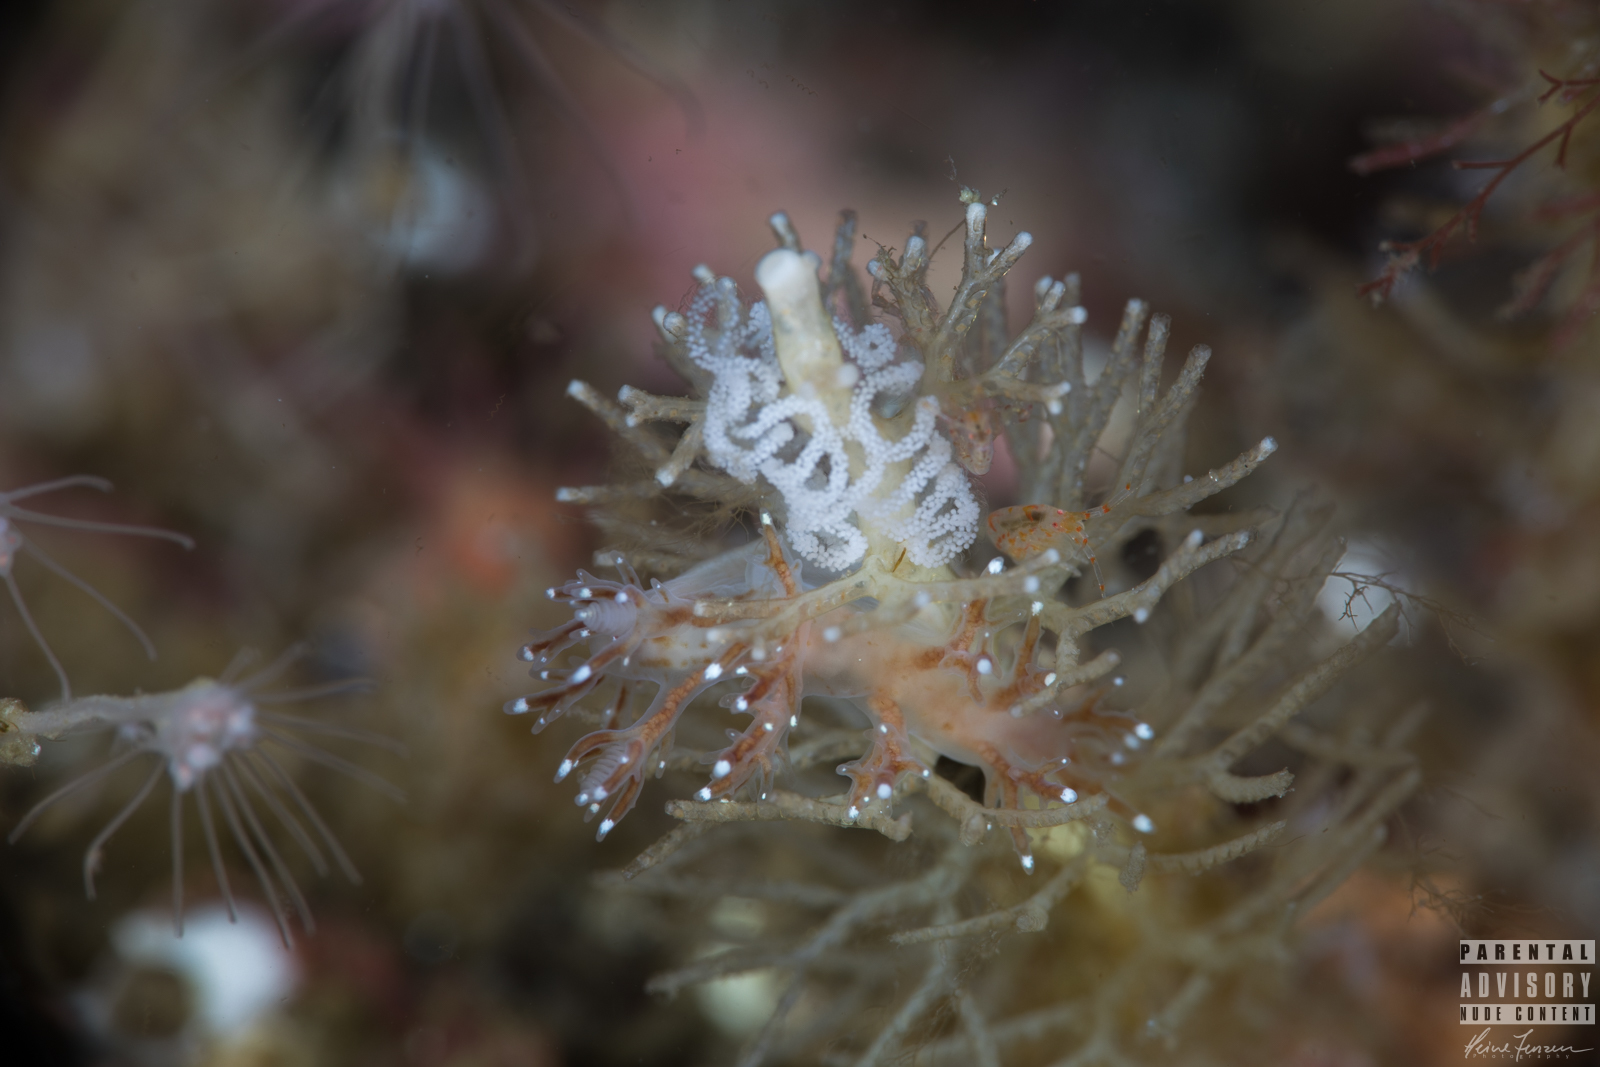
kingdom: Animalia
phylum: Mollusca
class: Gastropoda
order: Nudibranchia
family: Dendronotidae
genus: Dendronotus
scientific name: Dendronotus frondosus
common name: Bushy-backed nudibranch
